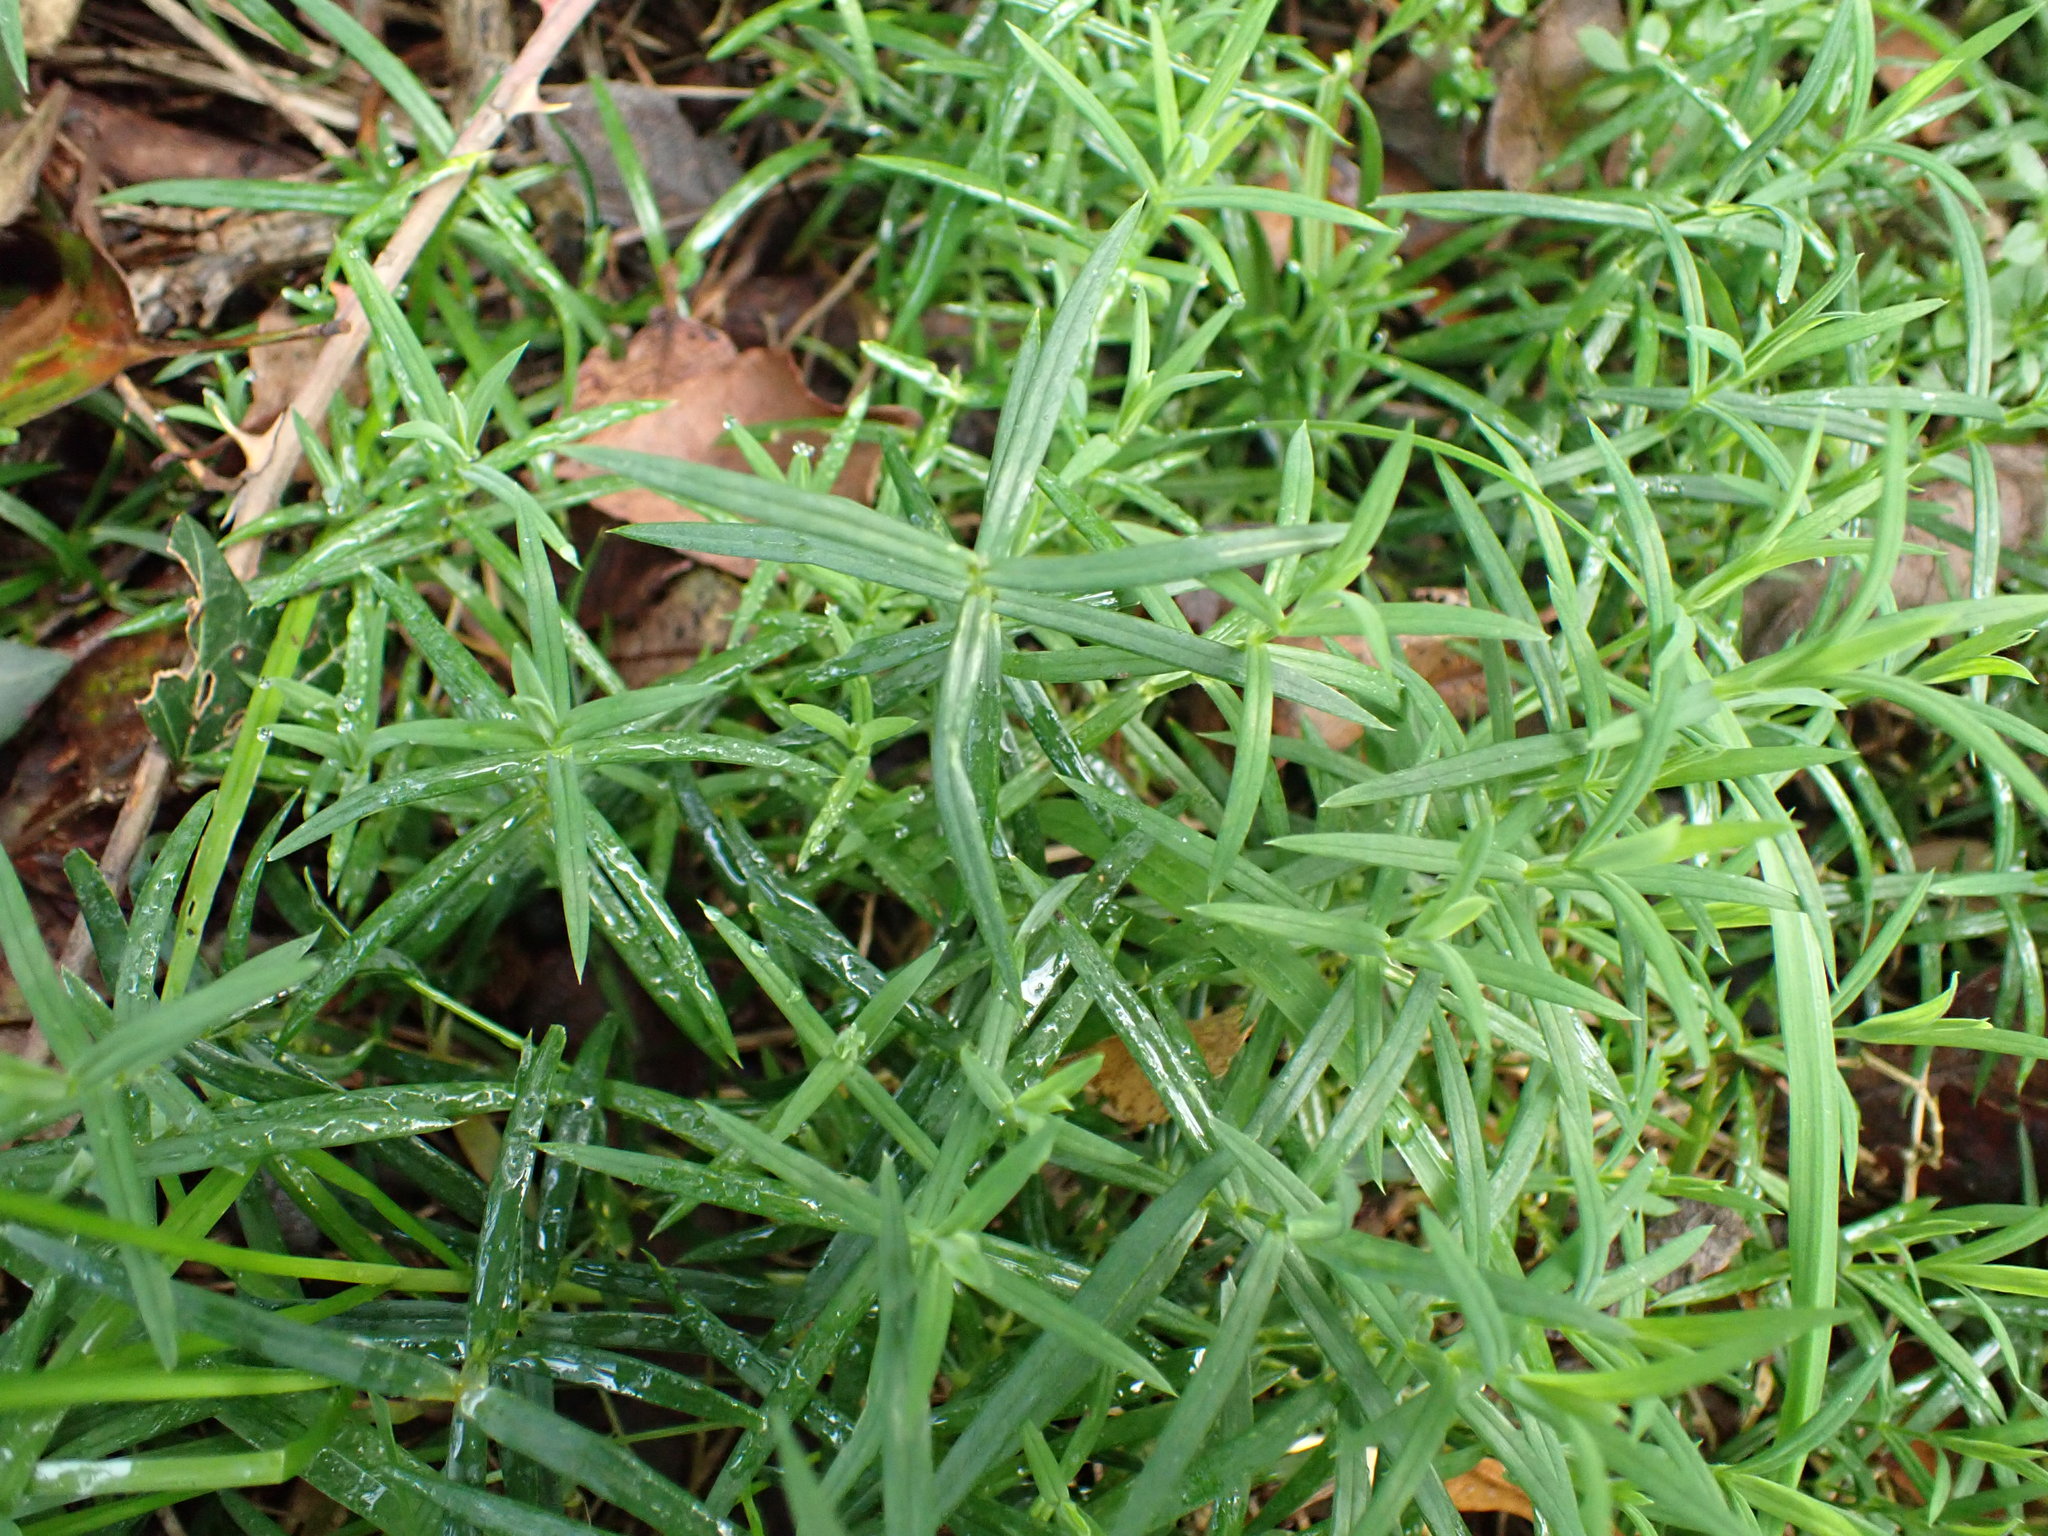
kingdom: Plantae
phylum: Tracheophyta
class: Magnoliopsida
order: Caryophyllales
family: Caryophyllaceae
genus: Rabelera
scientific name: Rabelera holostea
